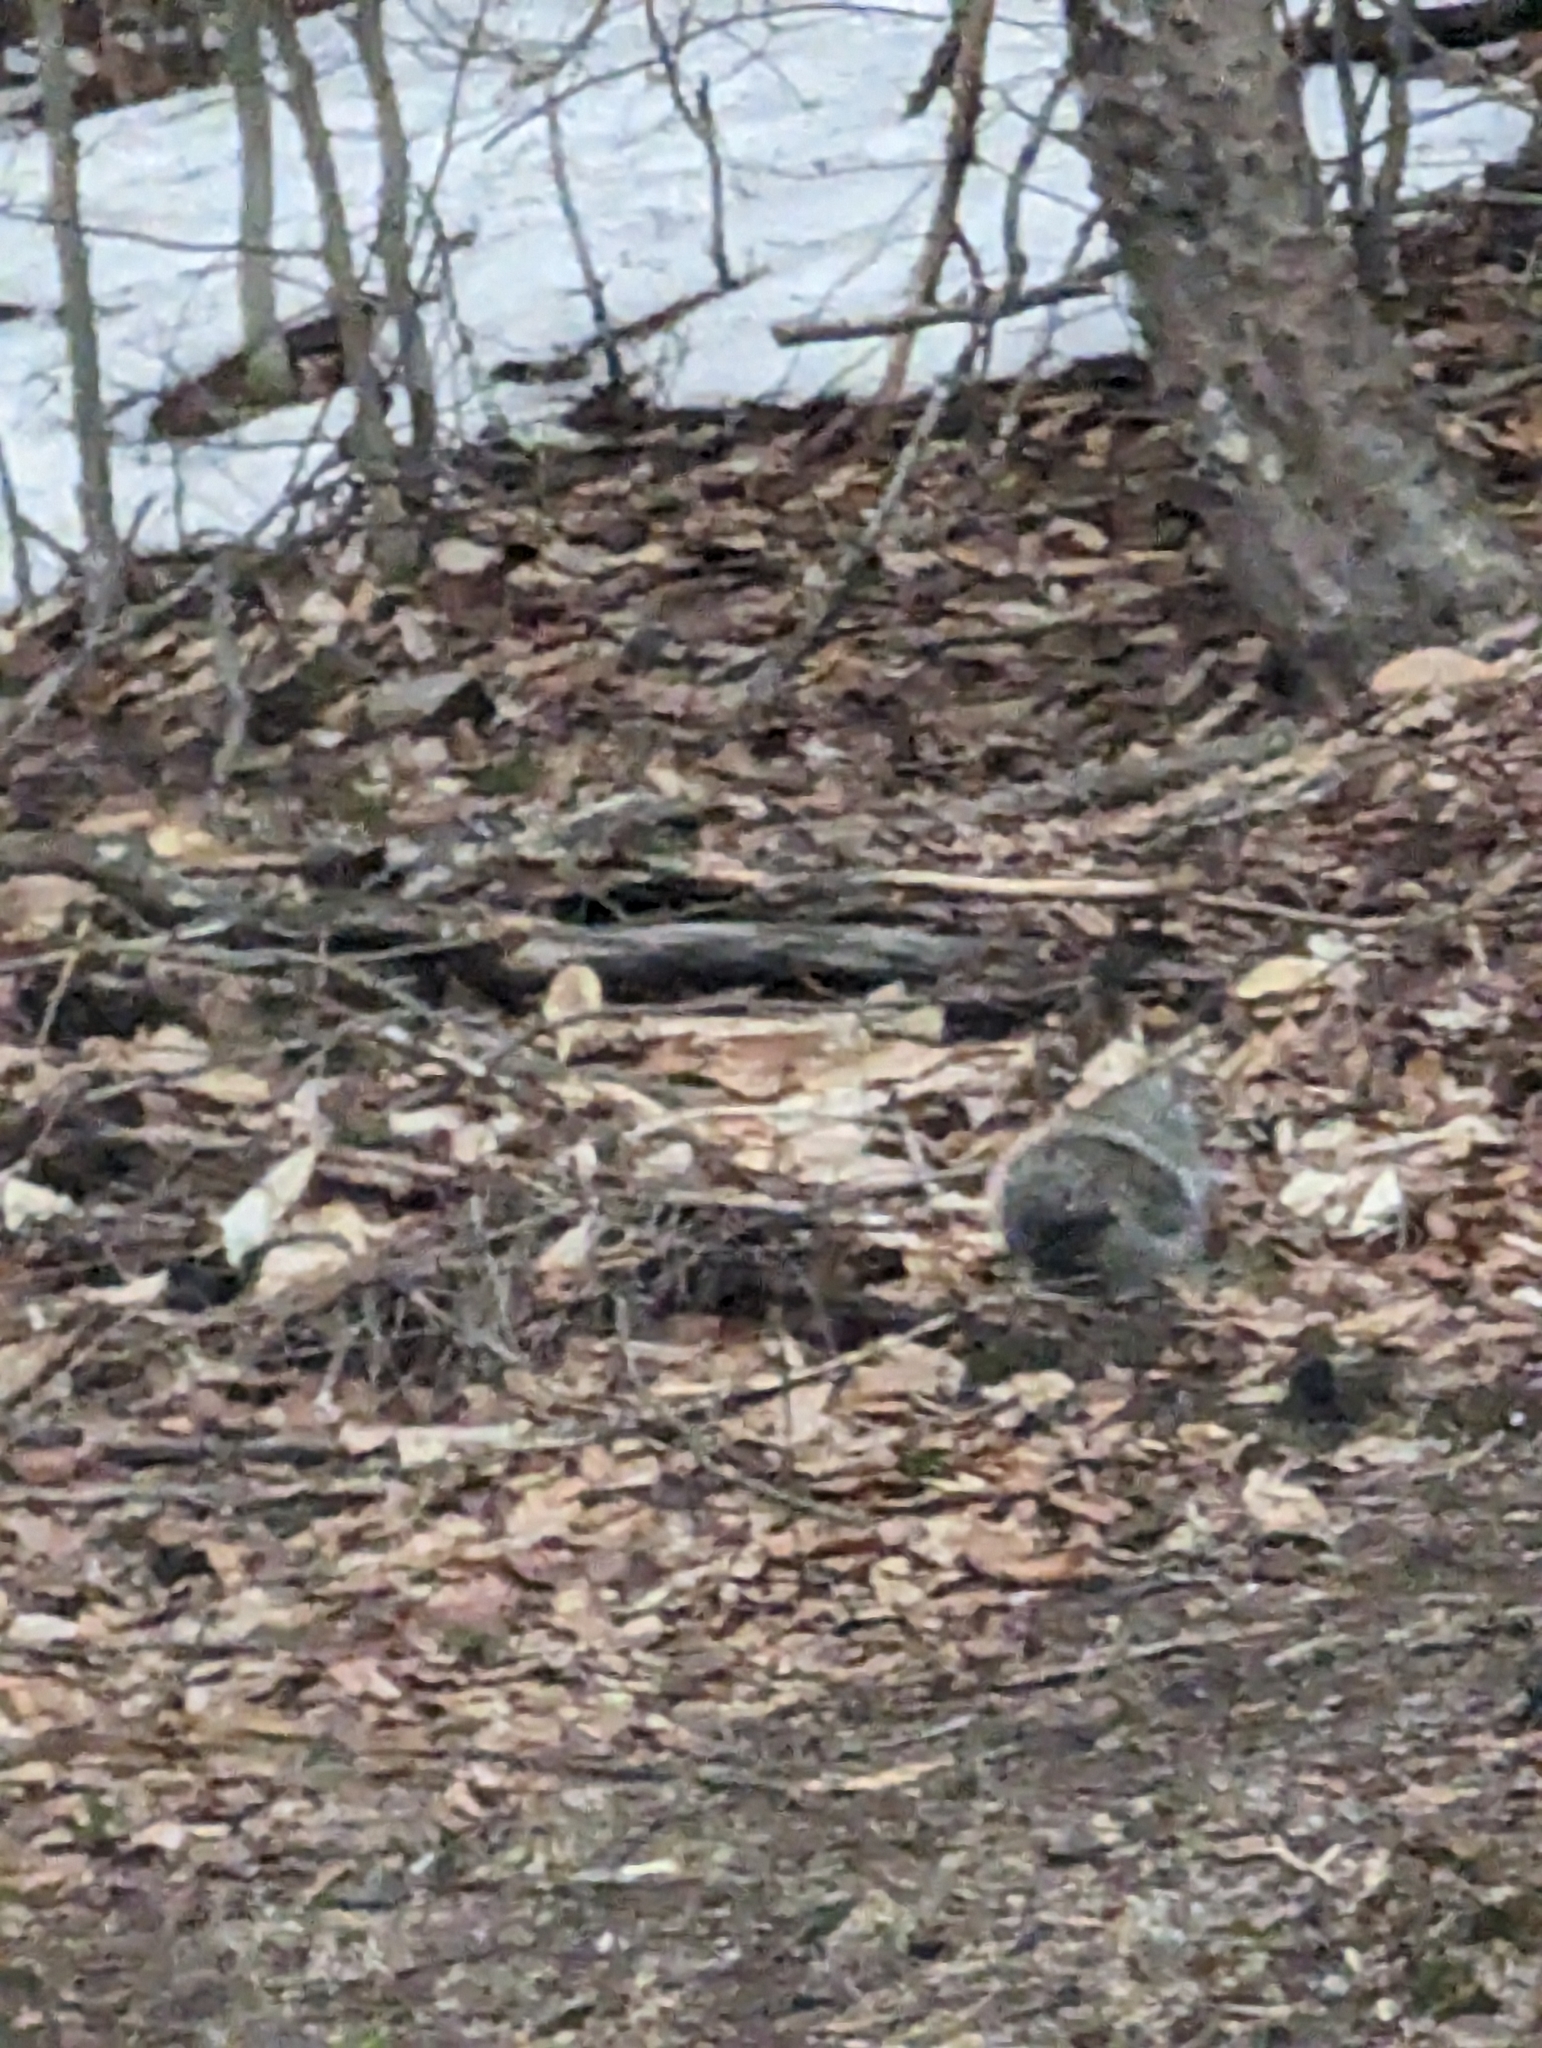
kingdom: Animalia
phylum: Chordata
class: Mammalia
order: Rodentia
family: Sciuridae
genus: Sciurus
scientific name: Sciurus carolinensis
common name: Eastern gray squirrel
